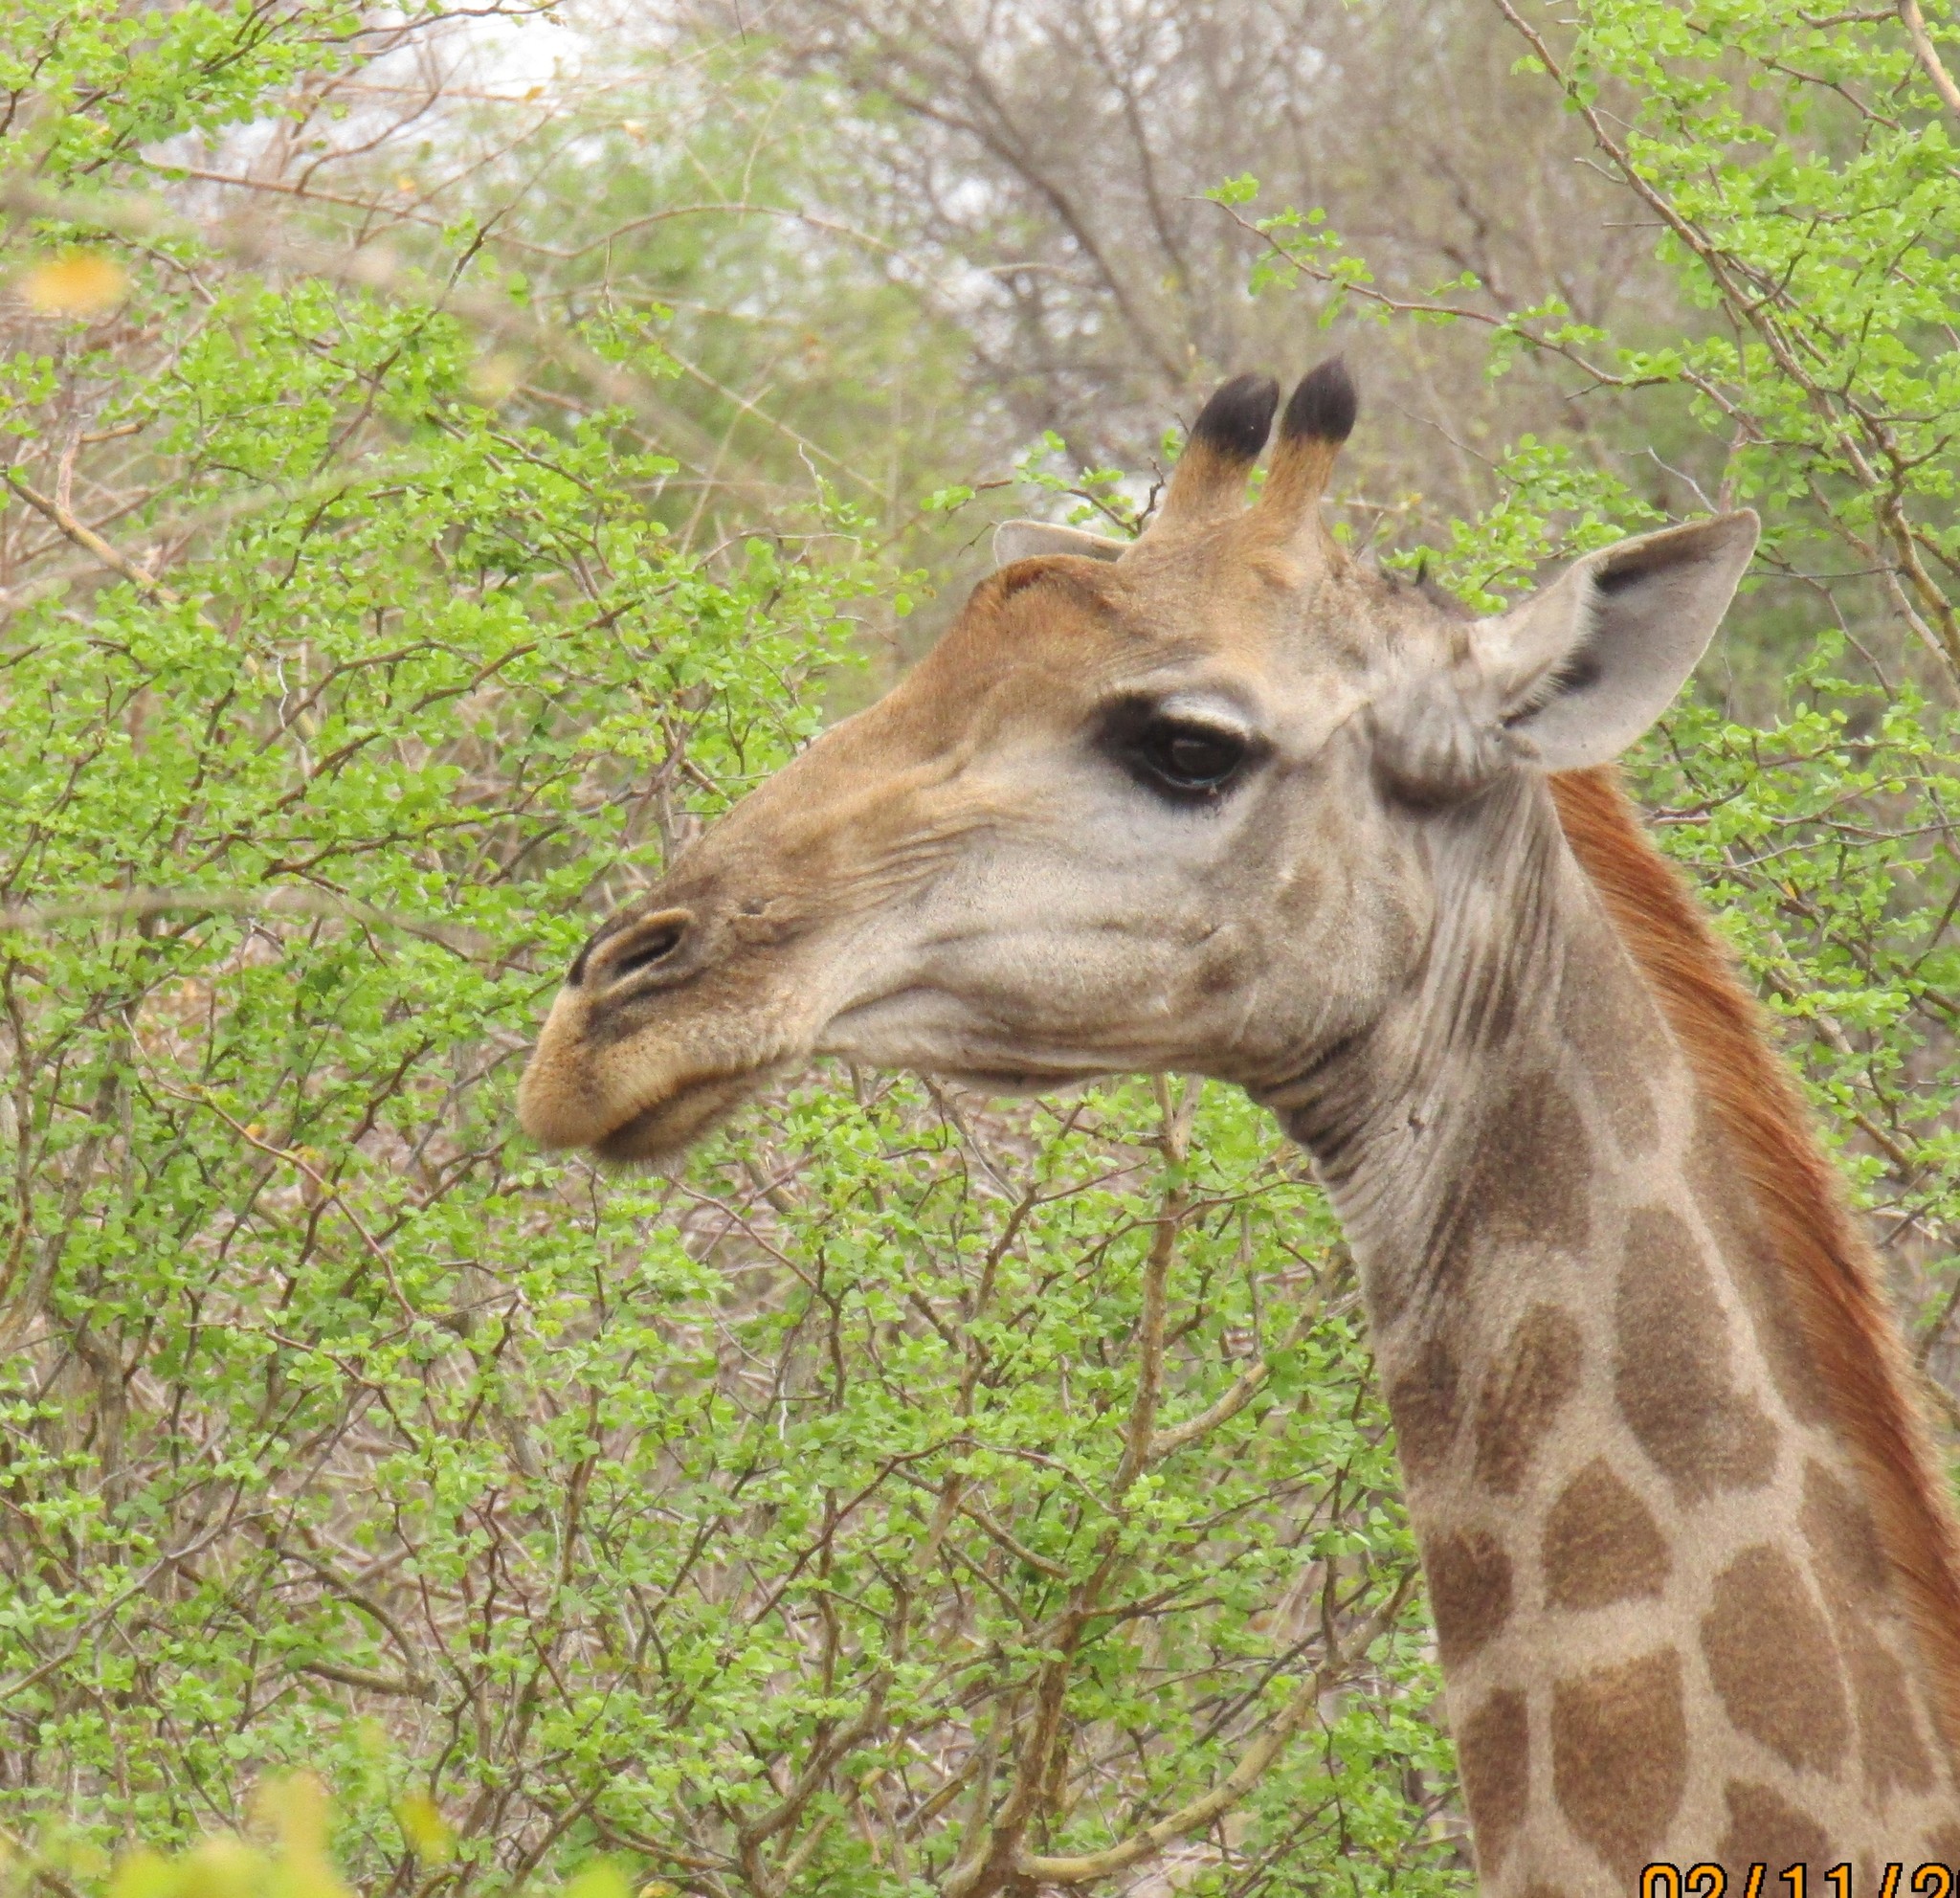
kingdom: Animalia
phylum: Chordata
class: Mammalia
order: Artiodactyla
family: Giraffidae
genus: Giraffa
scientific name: Giraffa giraffa
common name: Southern giraffe
